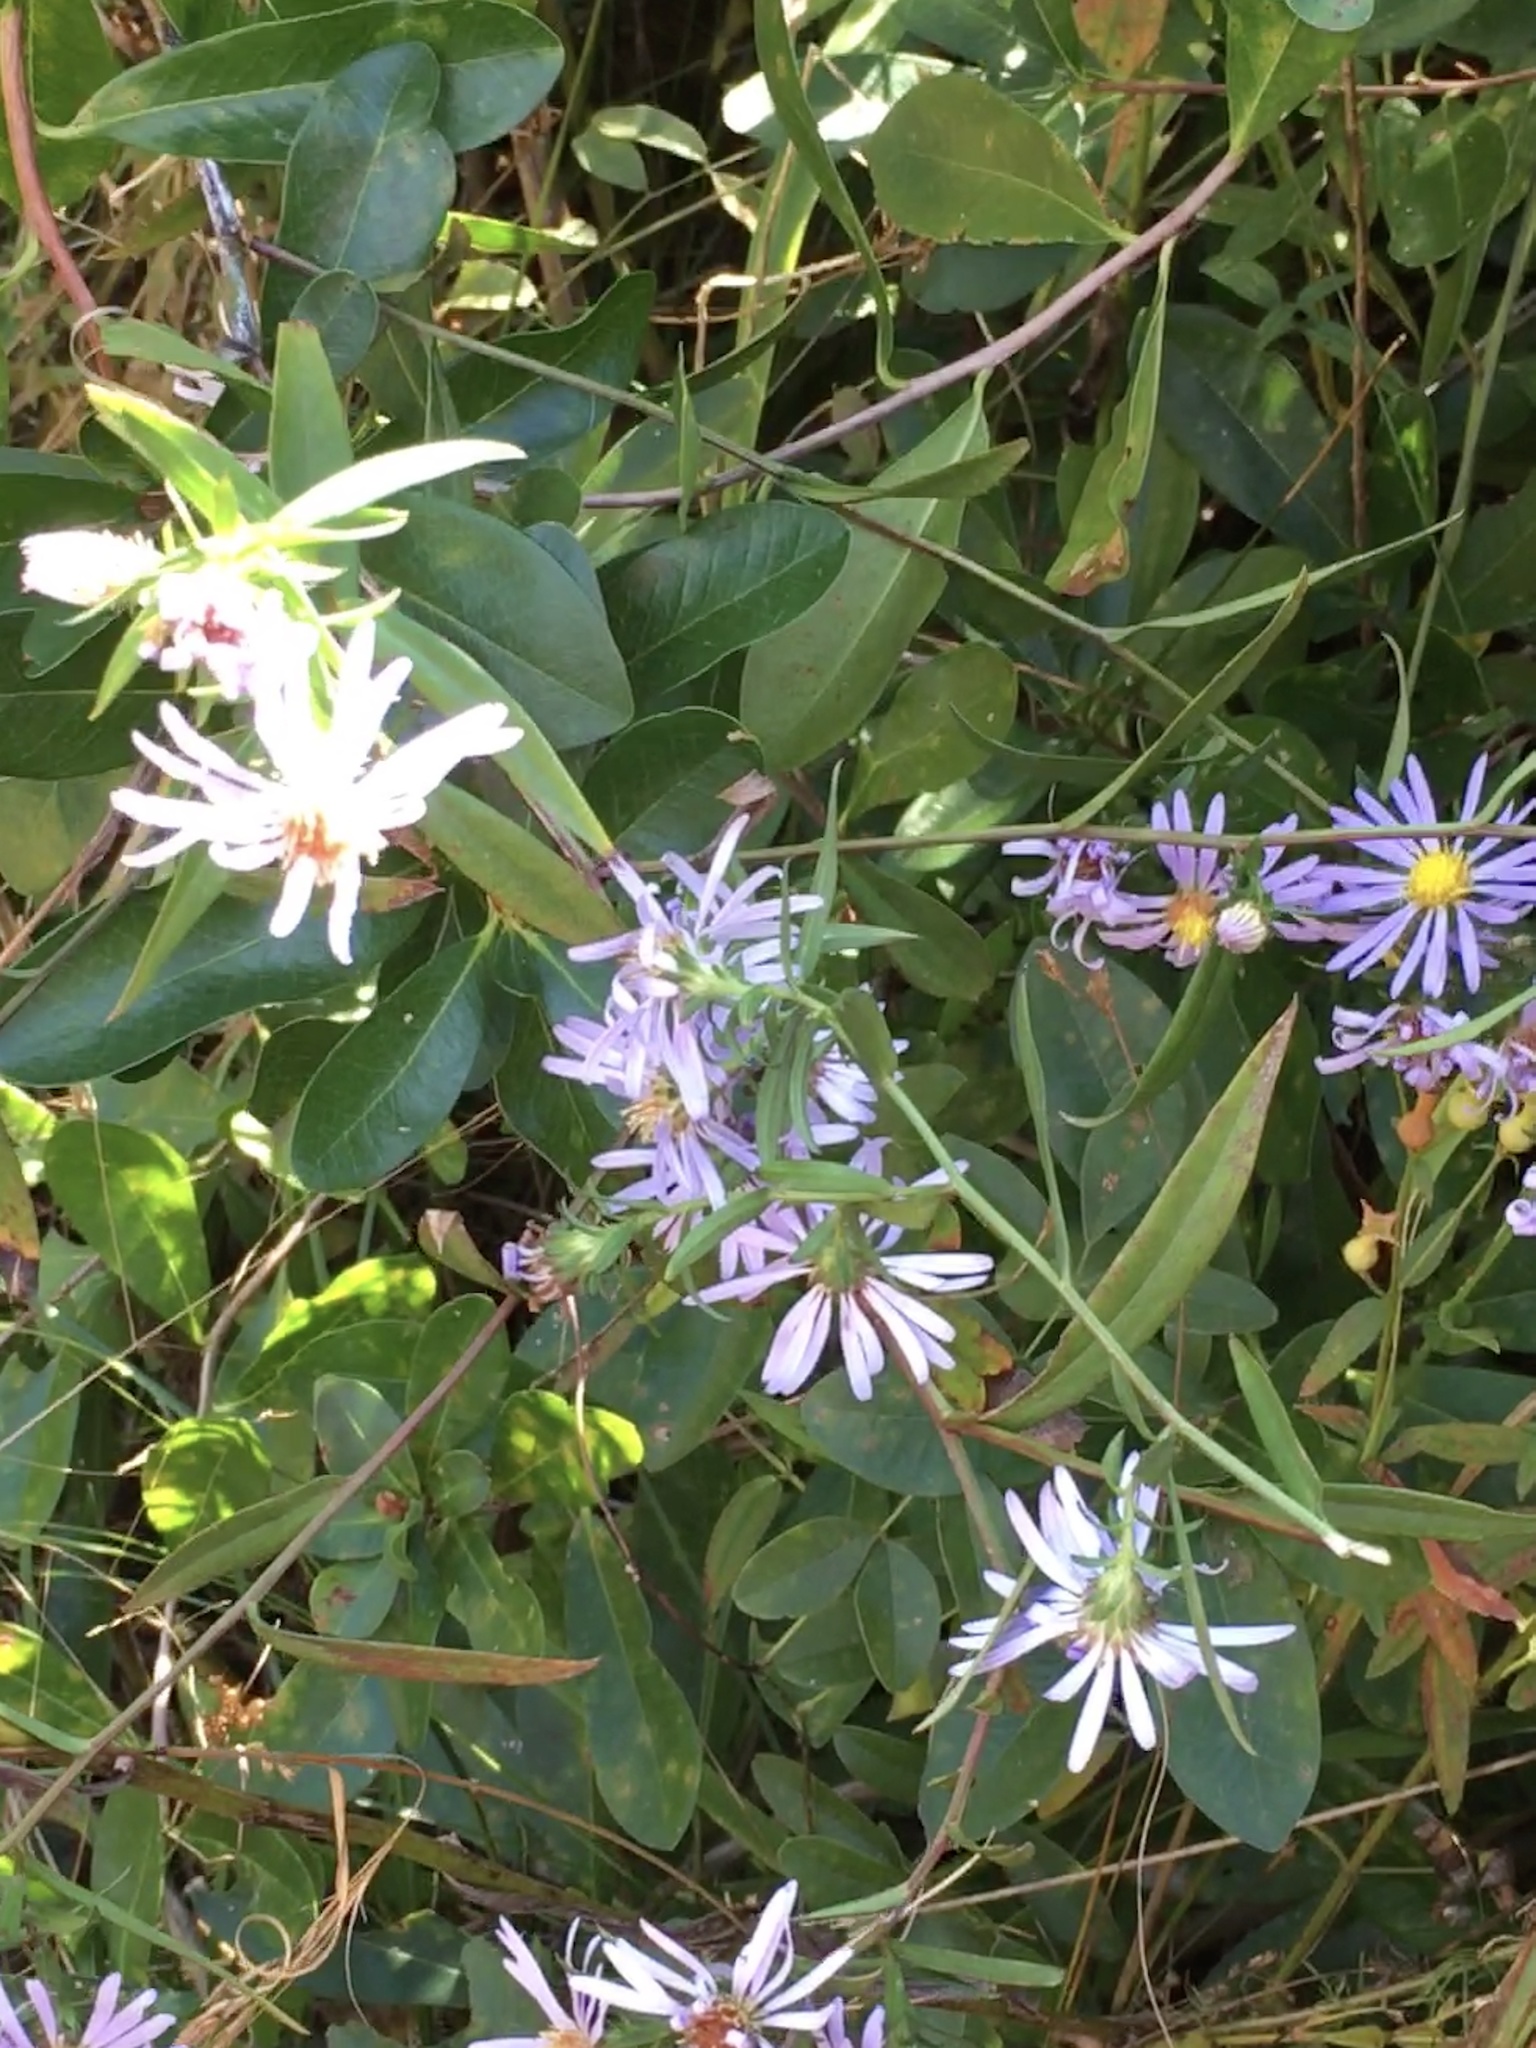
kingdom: Plantae
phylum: Tracheophyta
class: Magnoliopsida
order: Asterales
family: Asteraceae
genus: Symphyotrichum
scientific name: Symphyotrichum novi-belgii
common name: Michaelmas daisy
